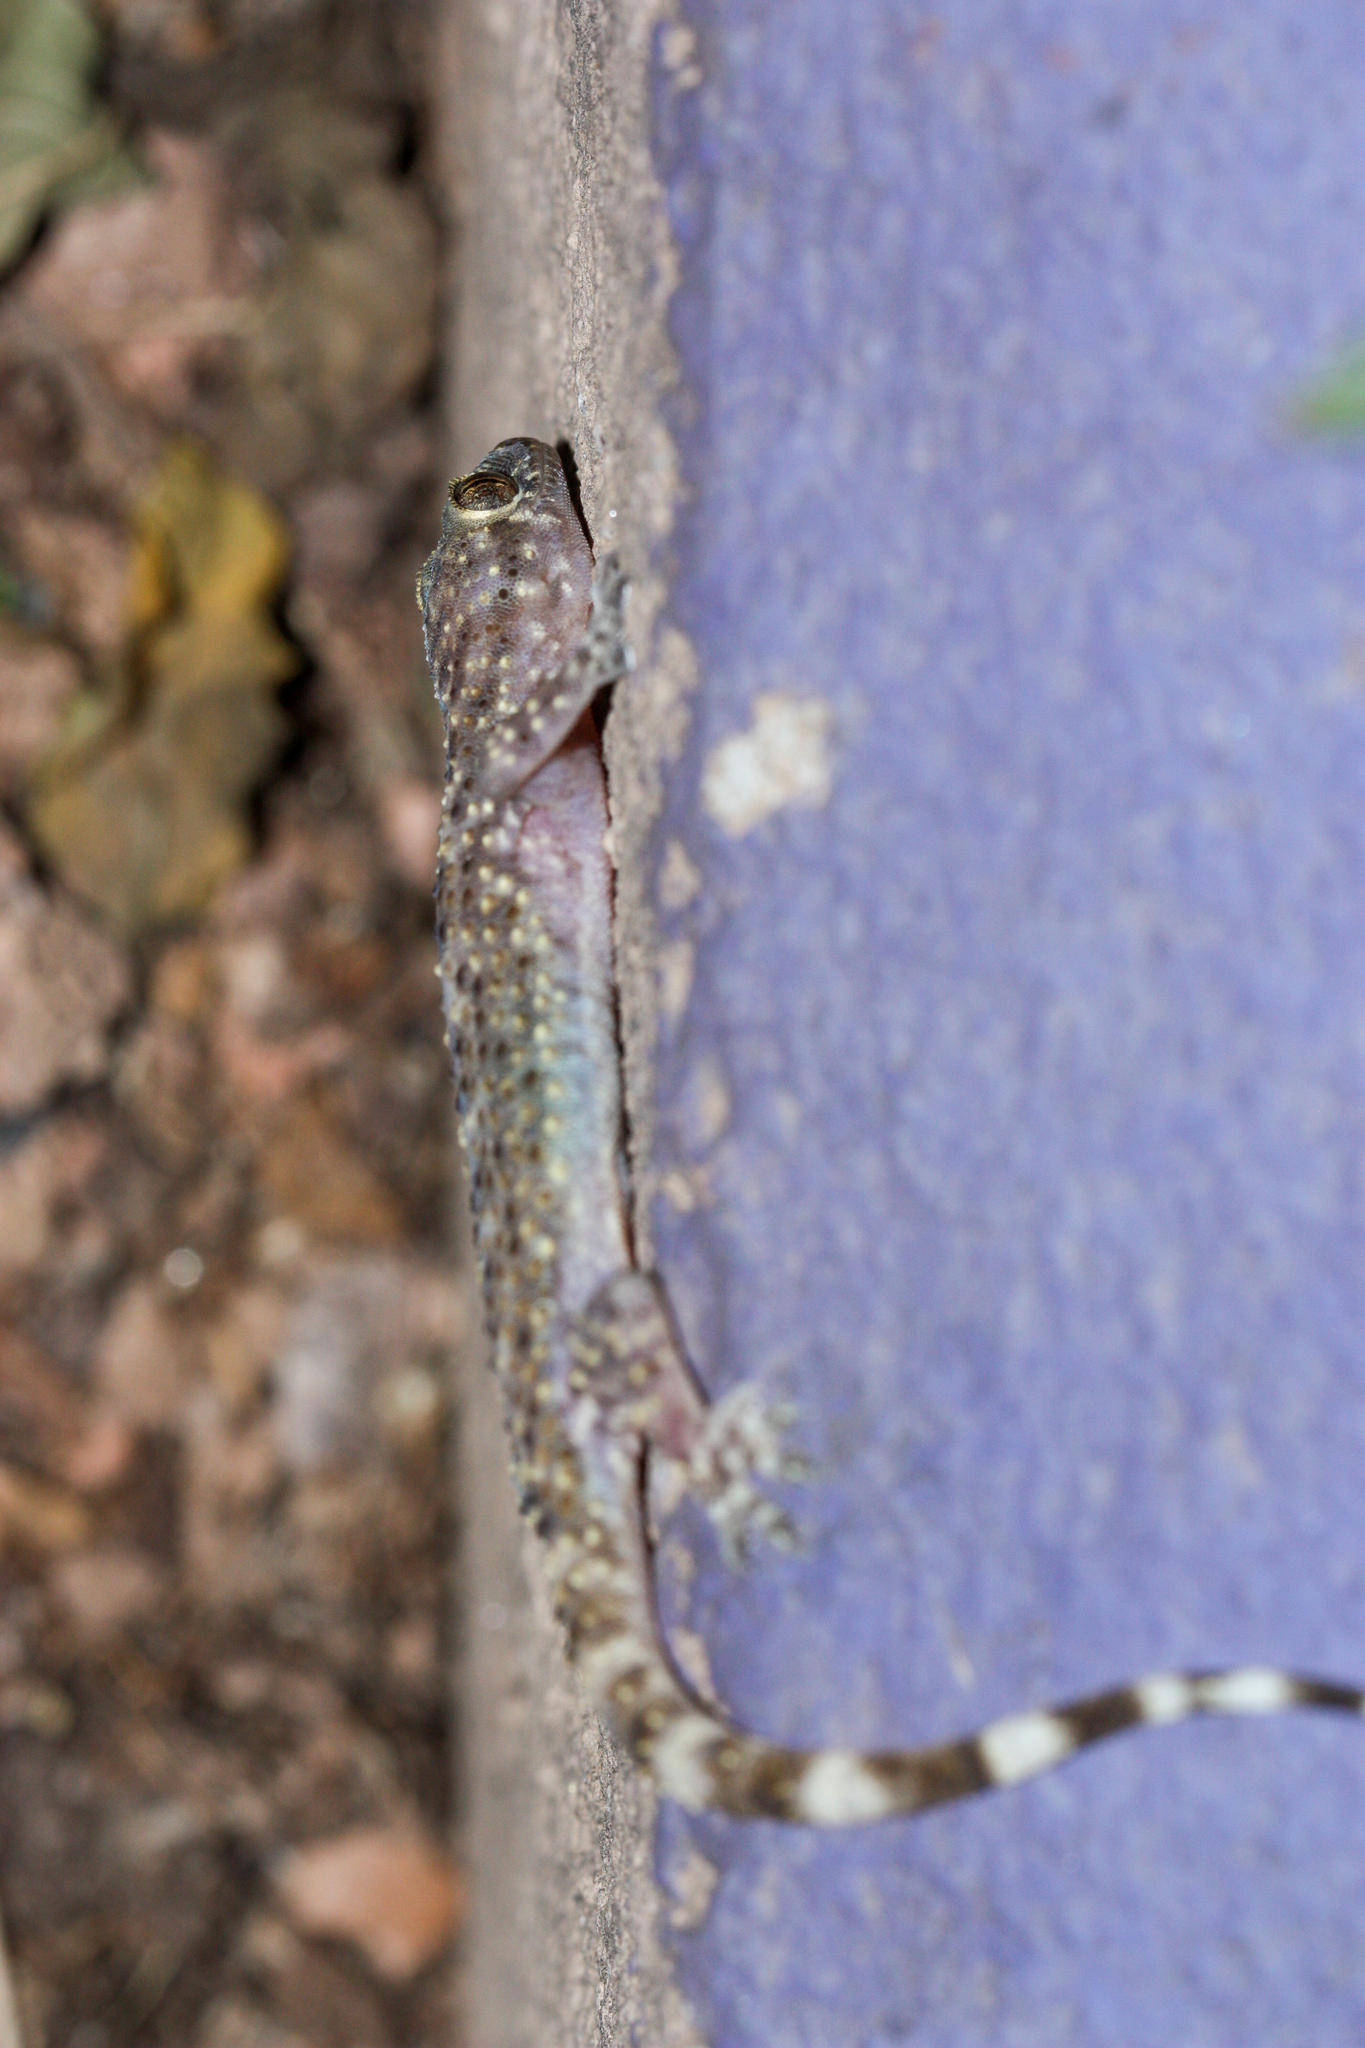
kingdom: Animalia
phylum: Chordata
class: Squamata
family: Gekkonidae
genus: Hemidactylus
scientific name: Hemidactylus turcicus
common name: Turkish gecko
